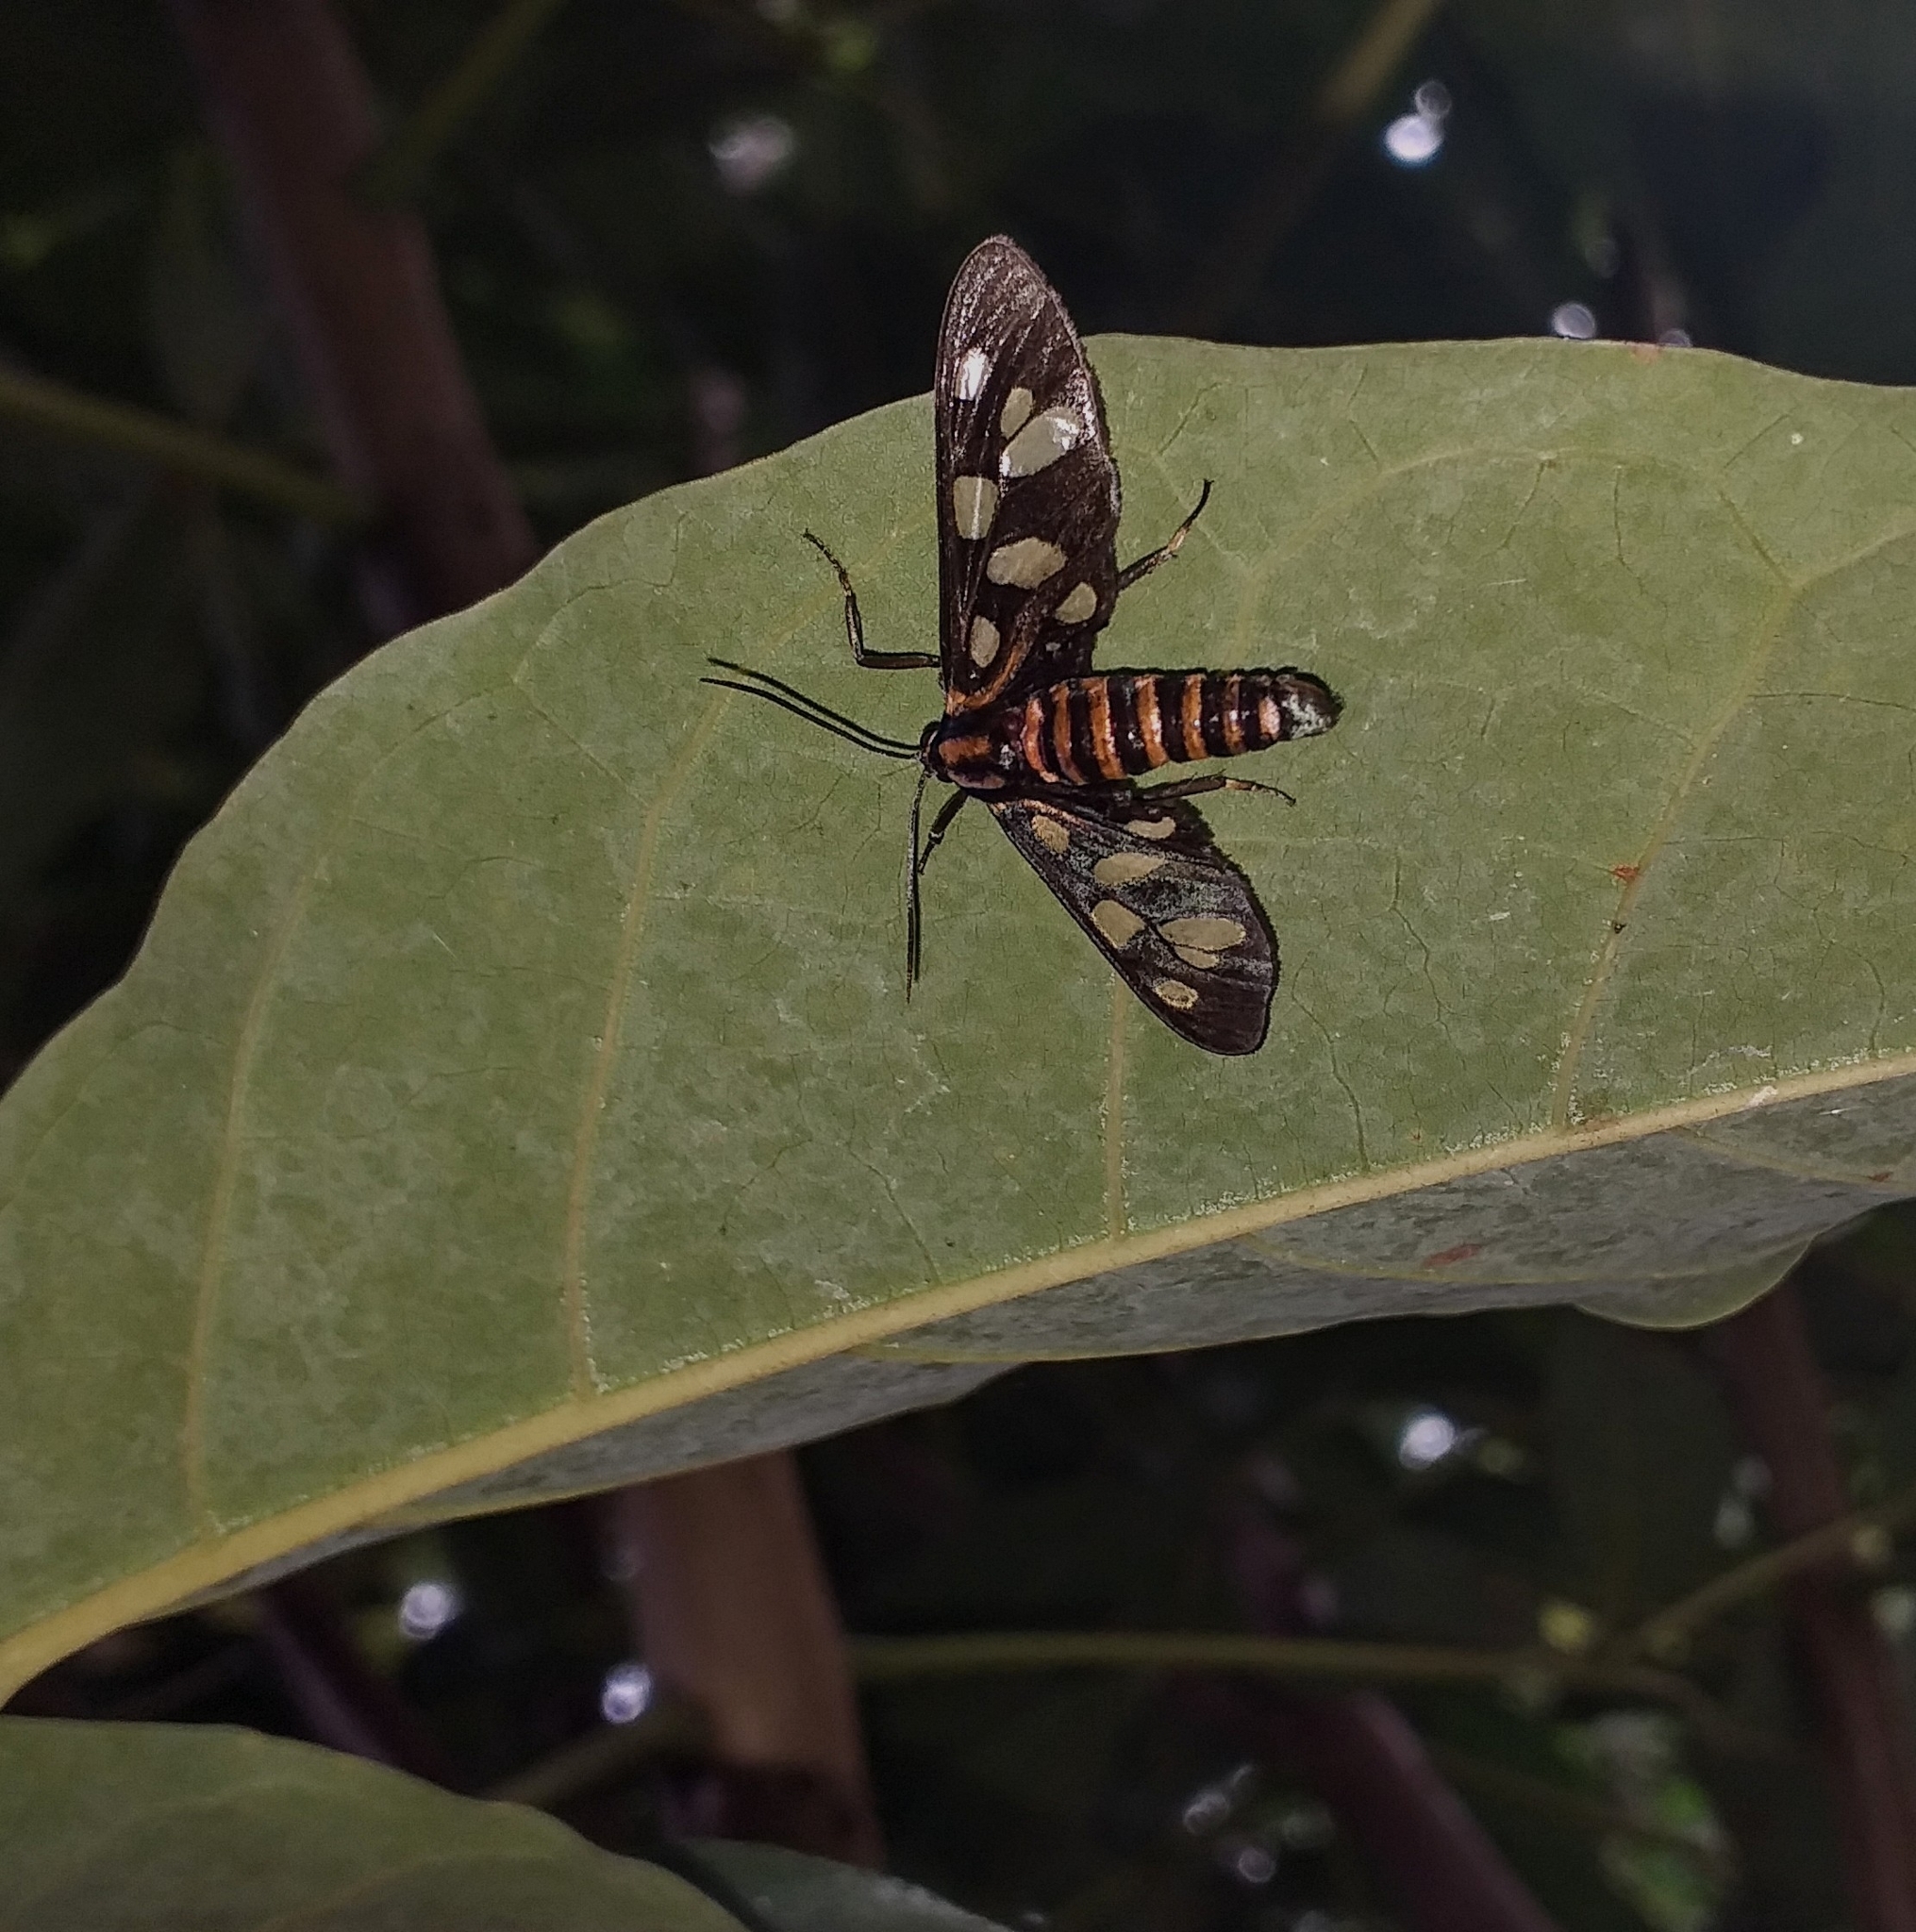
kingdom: Animalia
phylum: Arthropoda
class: Insecta
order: Lepidoptera
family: Erebidae
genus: Amata
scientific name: Amata passalis
